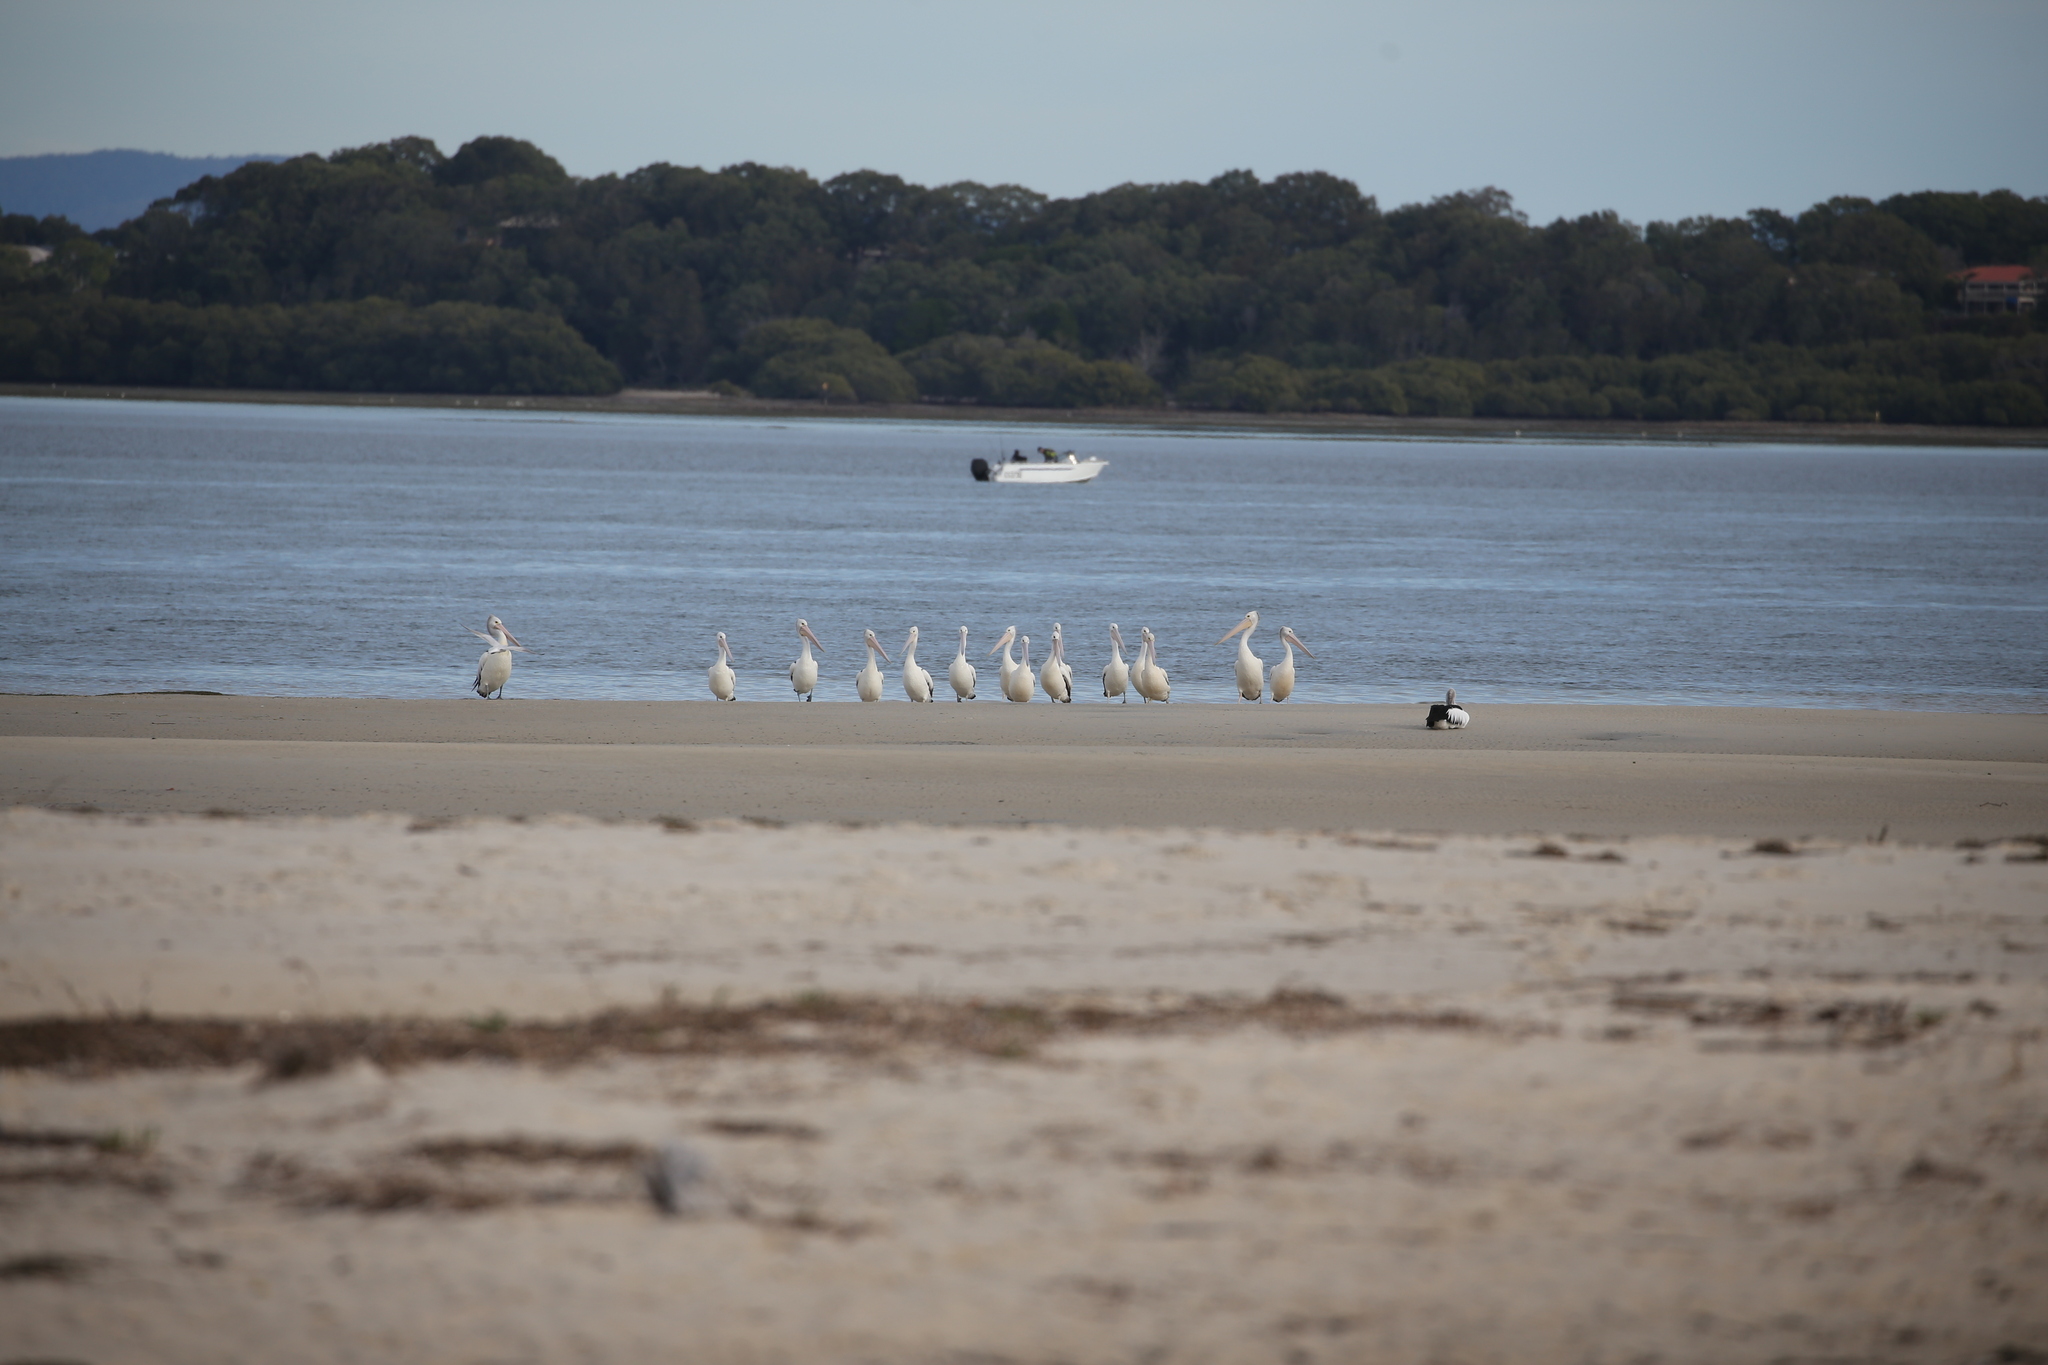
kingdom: Animalia
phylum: Chordata
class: Aves
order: Pelecaniformes
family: Pelecanidae
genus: Pelecanus
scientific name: Pelecanus conspicillatus
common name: Australian pelican
